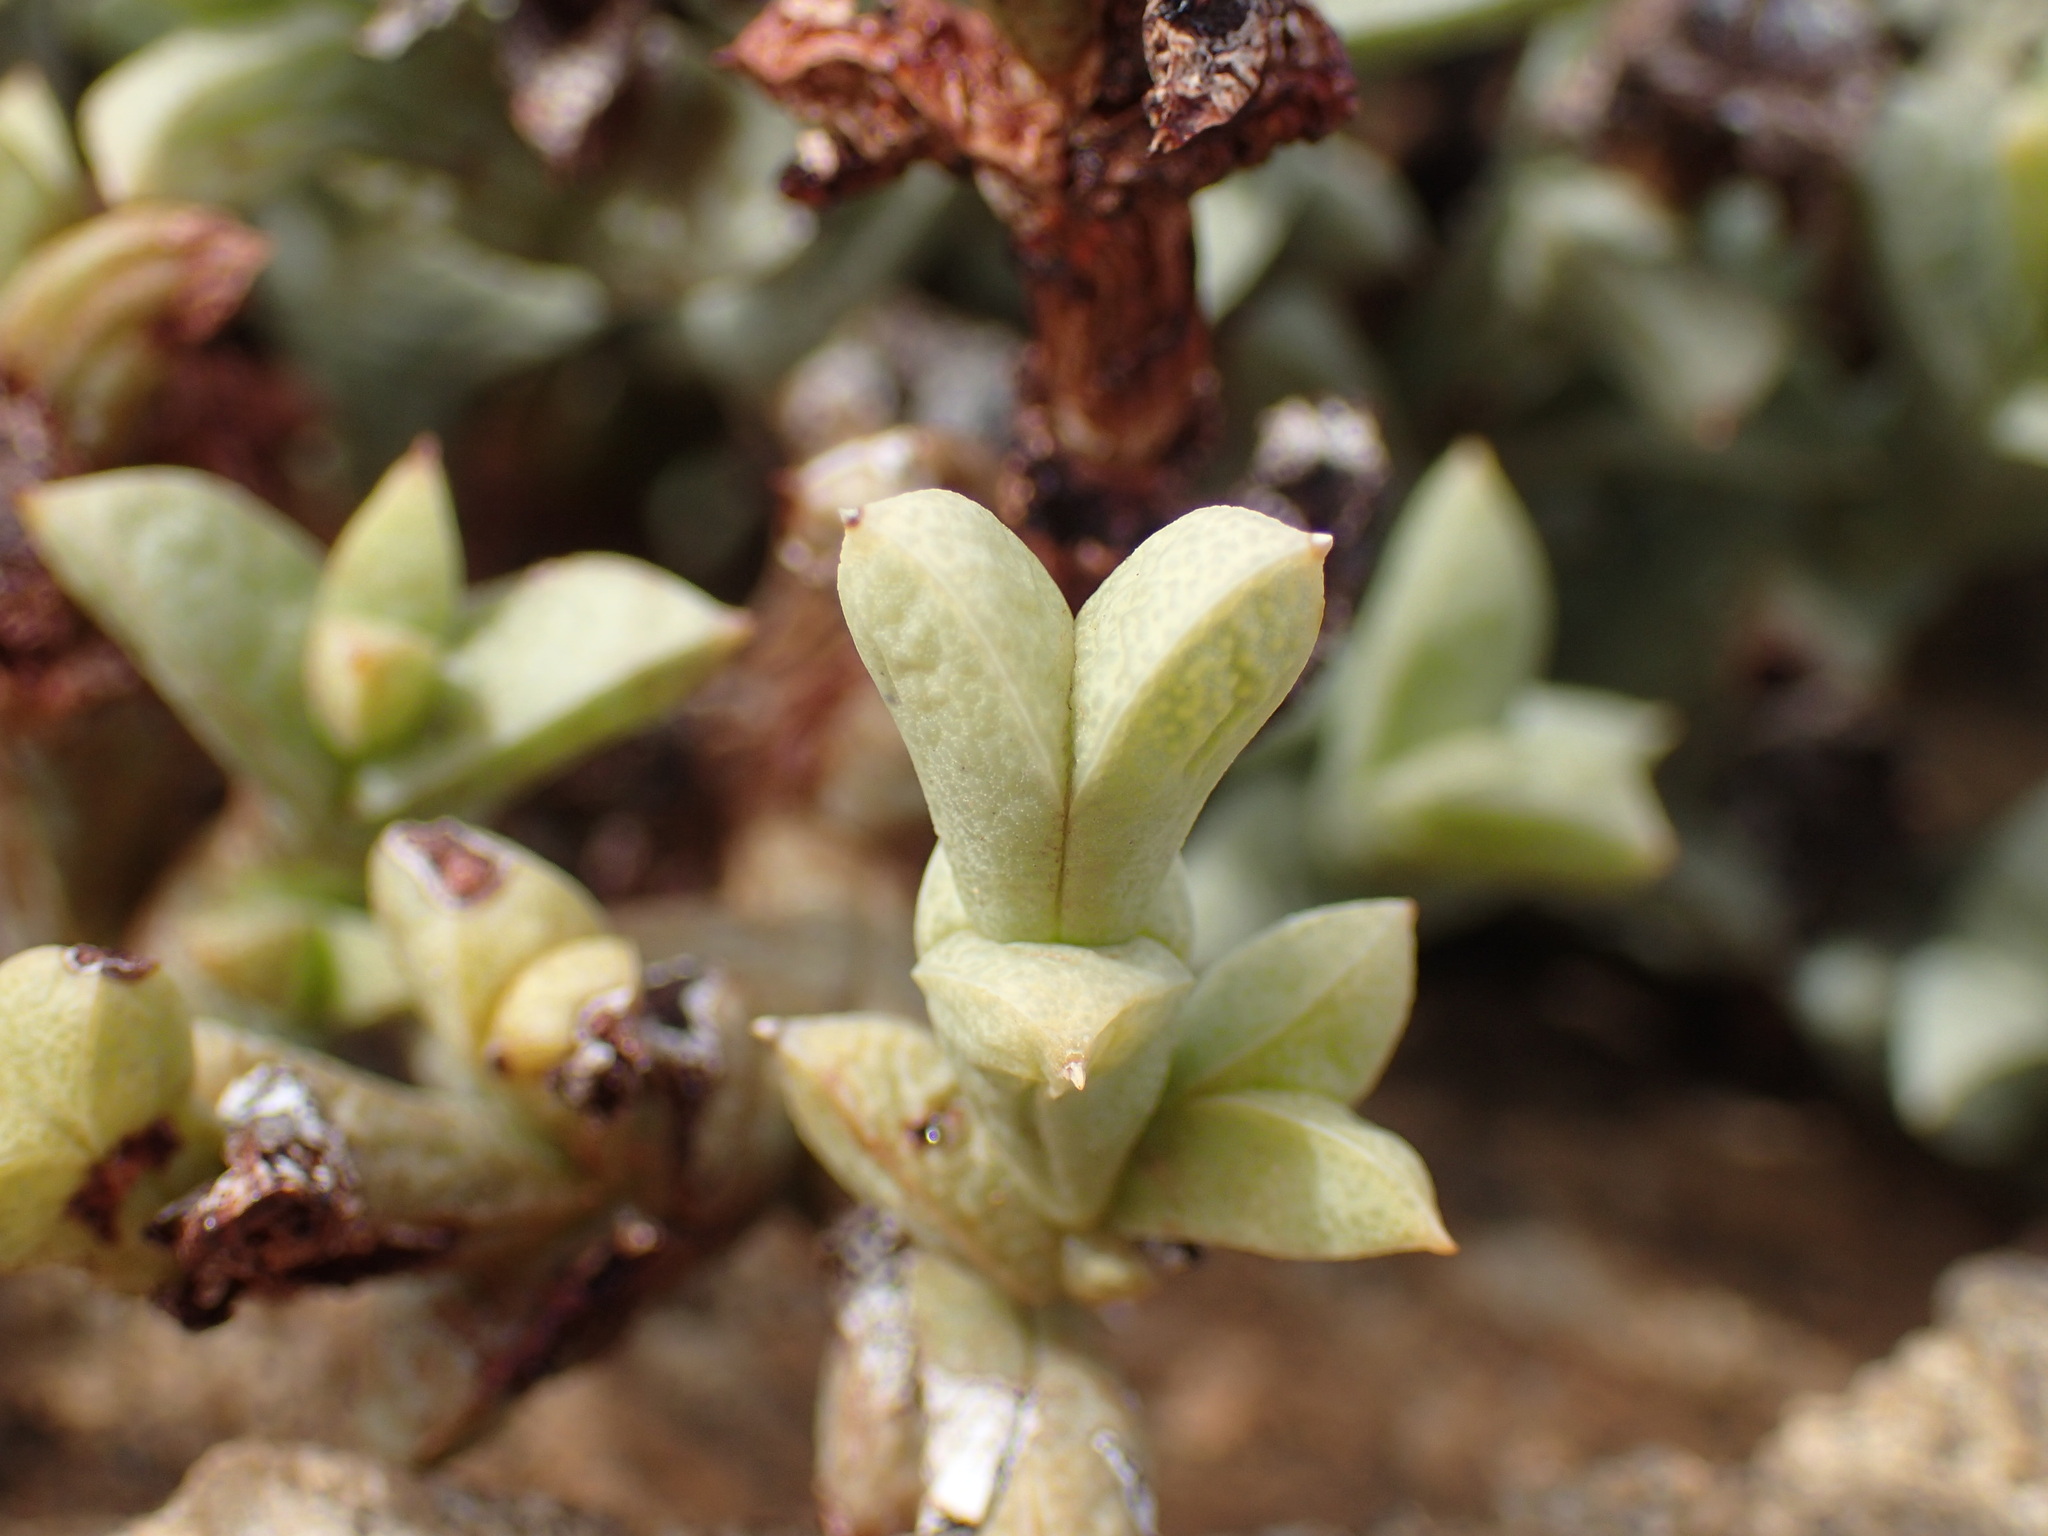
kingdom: Plantae
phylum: Tracheophyta
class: Magnoliopsida
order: Caryophyllales
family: Aizoaceae
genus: Schlechteranthus
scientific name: Schlechteranthus albiflorus
